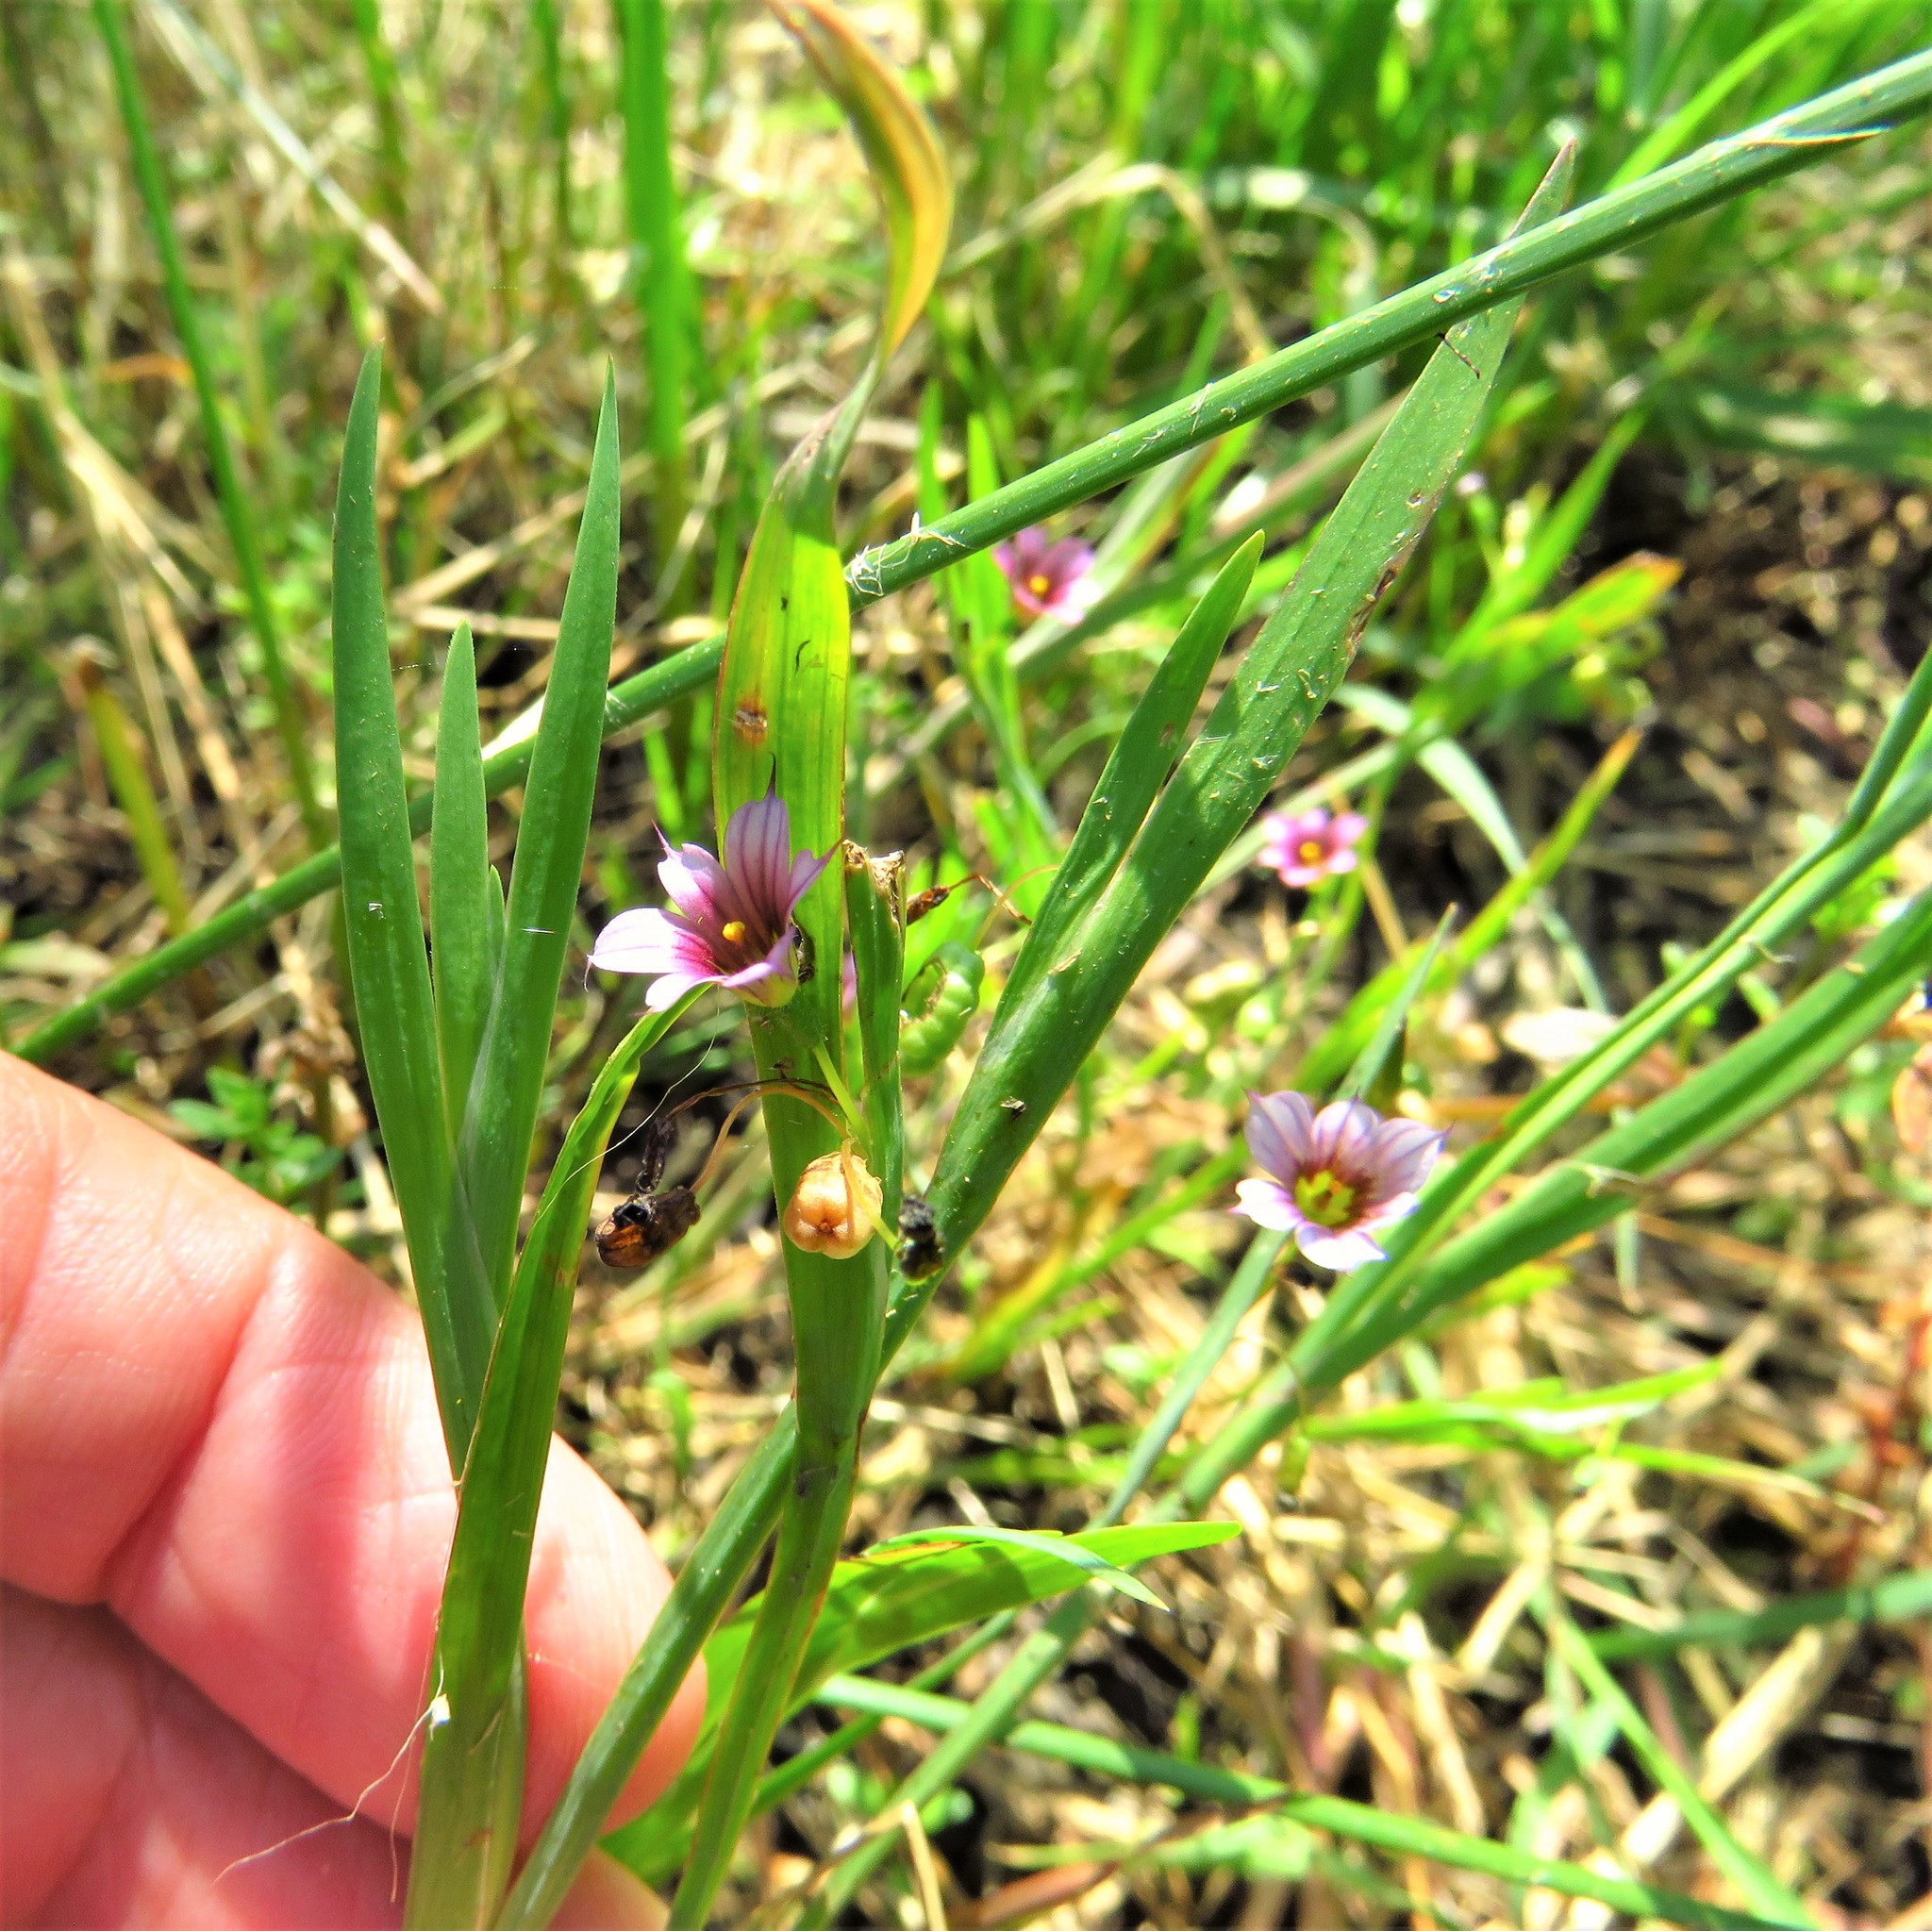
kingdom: Plantae
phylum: Tracheophyta
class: Liliopsida
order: Asparagales
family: Iridaceae
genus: Sisyrinchium
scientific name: Sisyrinchium minus
